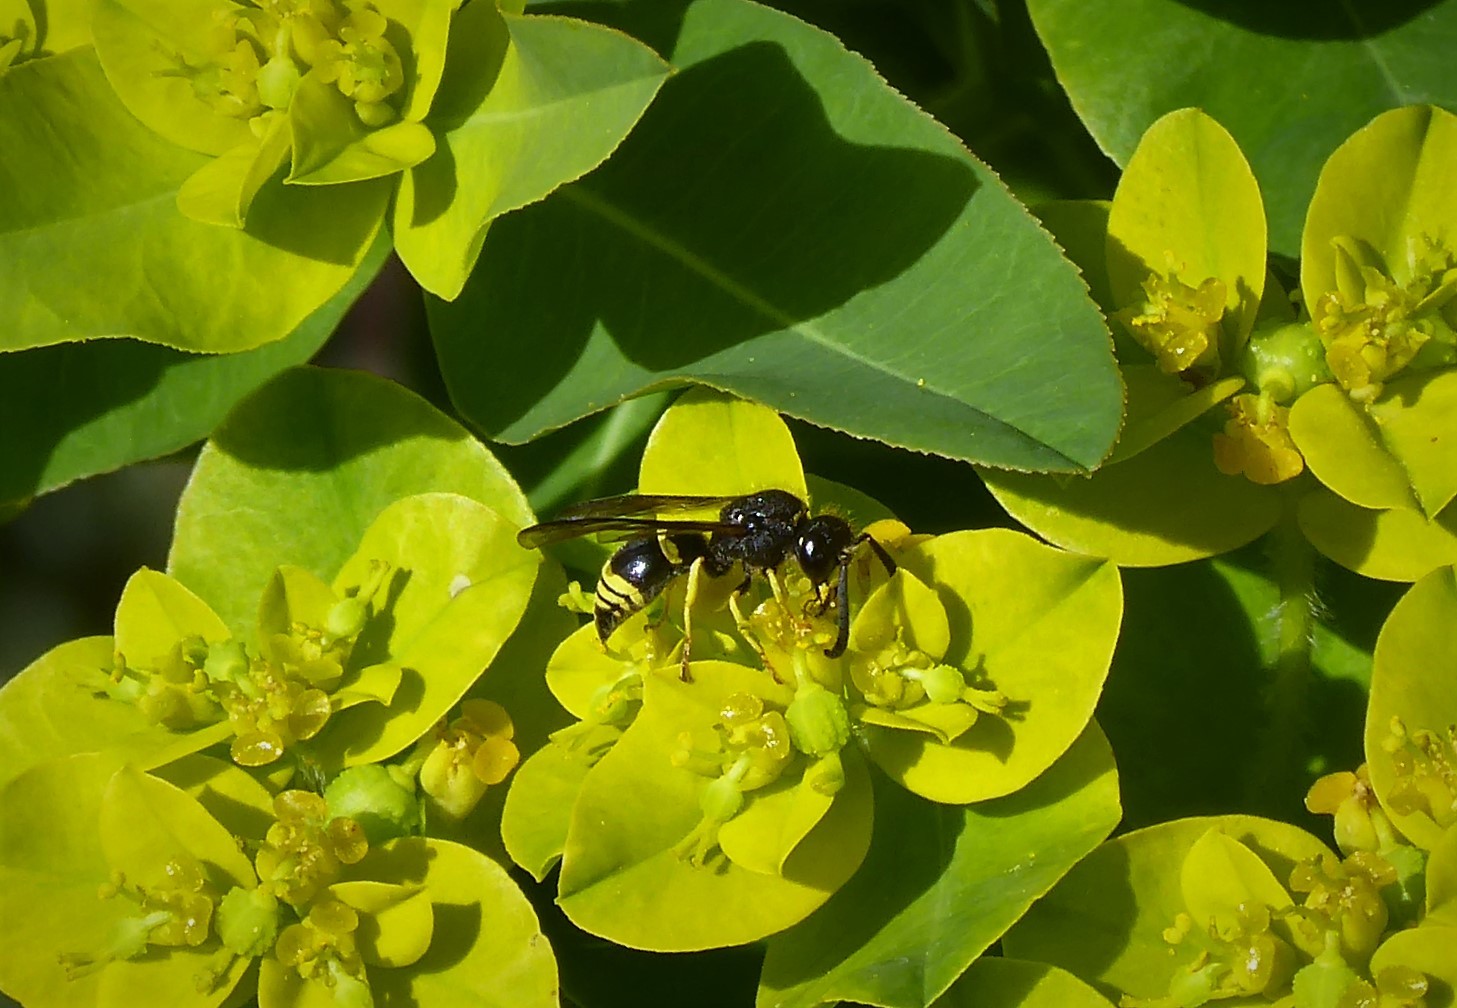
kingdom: Animalia
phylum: Arthropoda
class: Insecta
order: Hymenoptera
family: Vespidae
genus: Ancistrocerus
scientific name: Ancistrocerus gazella
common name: European tube wasp
